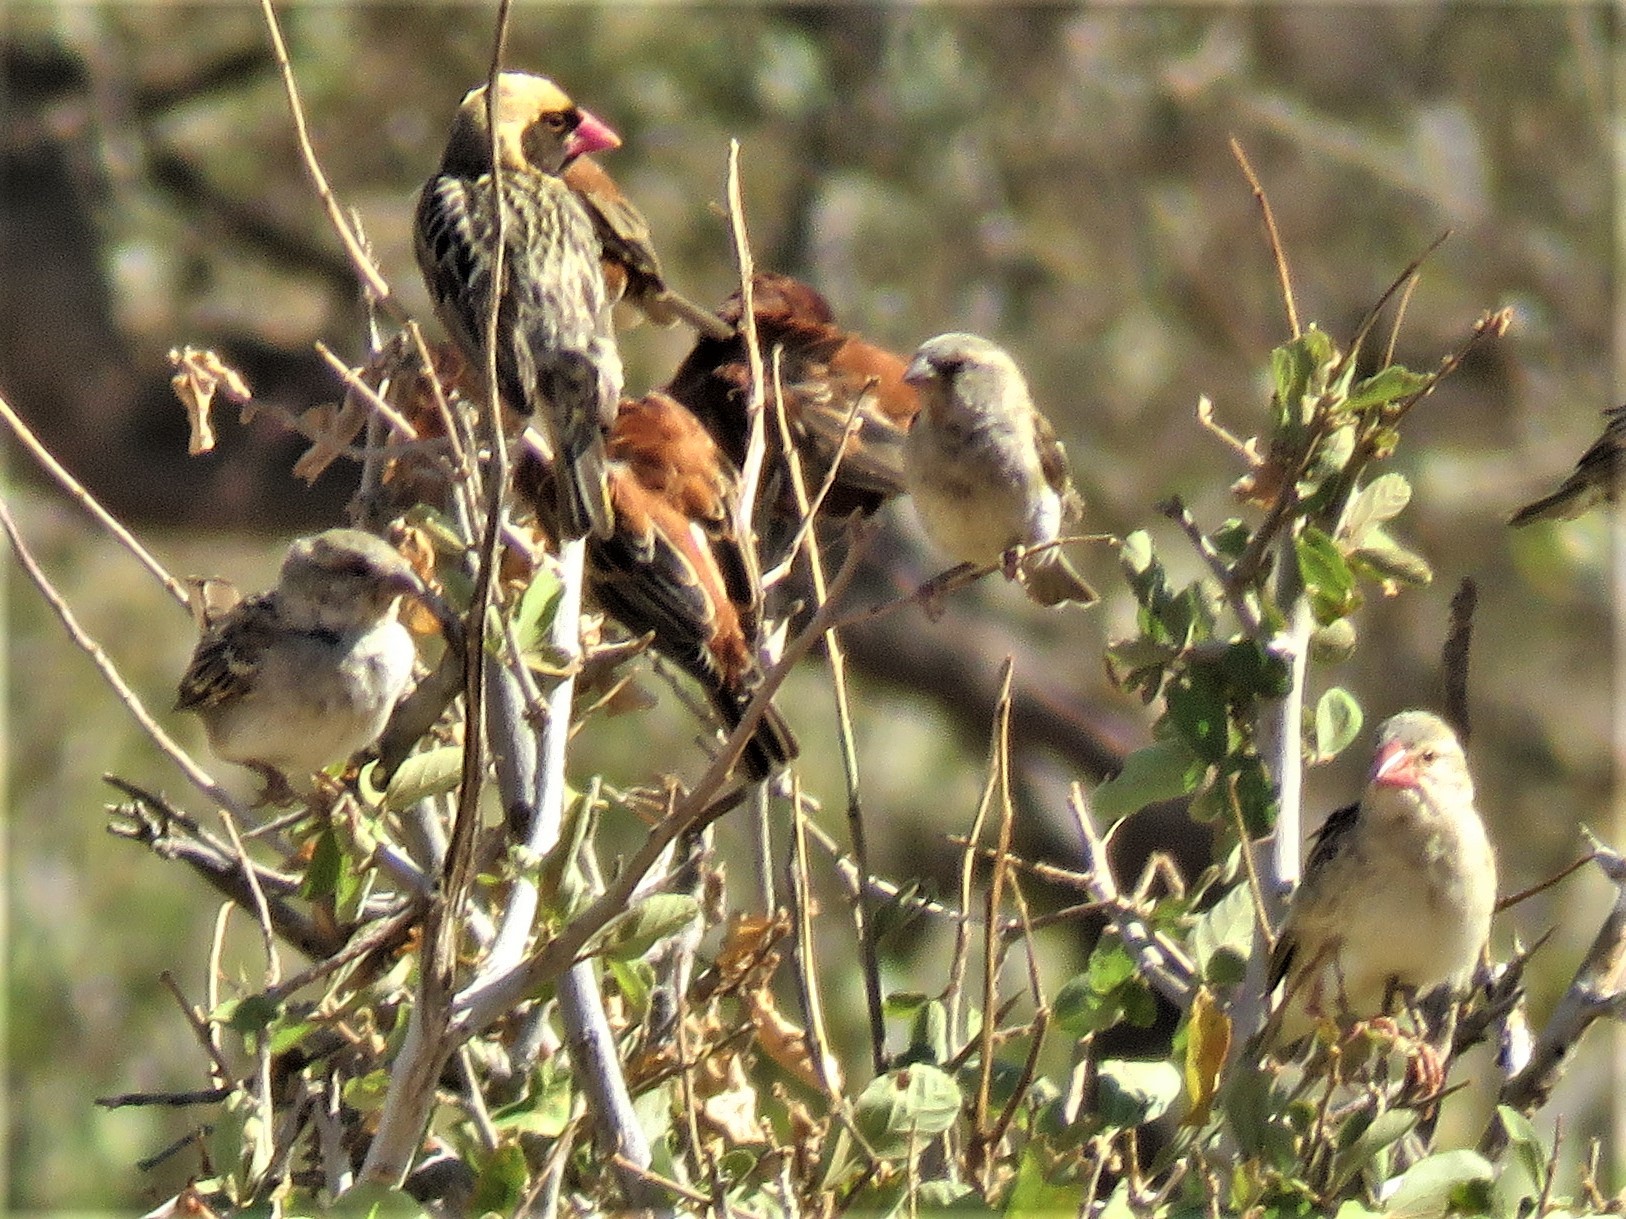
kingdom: Animalia
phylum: Chordata
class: Aves
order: Passeriformes
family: Ploceidae
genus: Quelea
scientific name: Quelea quelea
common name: Red-billed quelea
